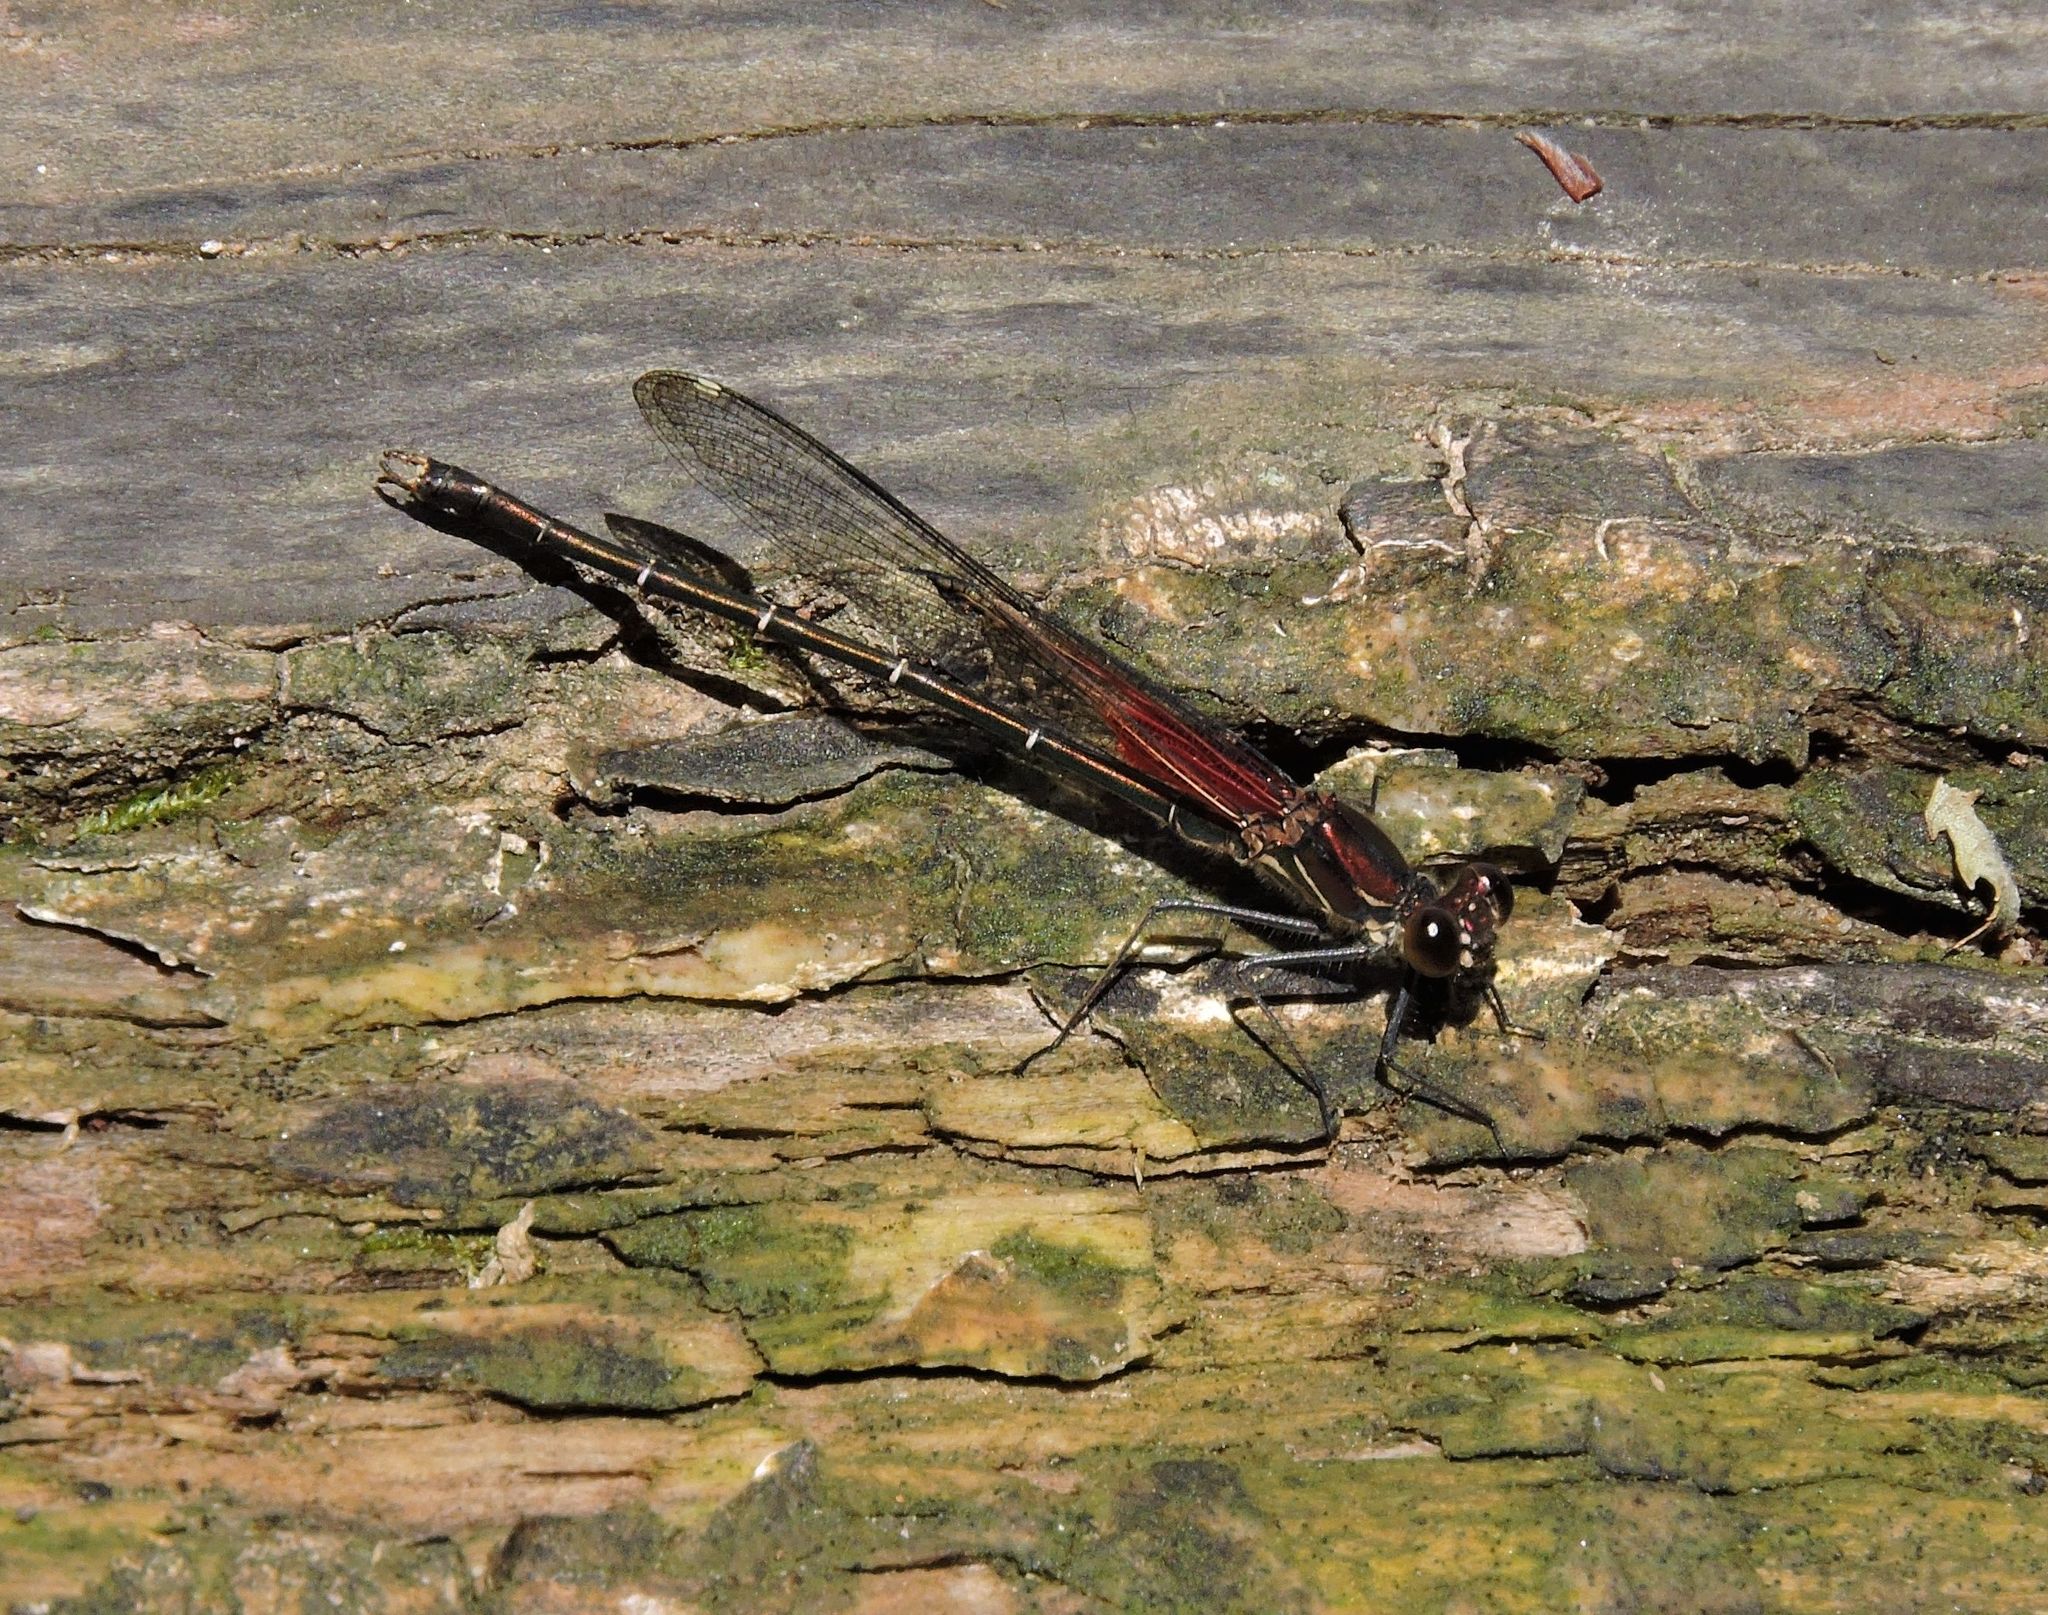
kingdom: Animalia
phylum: Arthropoda
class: Insecta
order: Odonata
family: Calopterygidae
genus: Hetaerina
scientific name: Hetaerina americana
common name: American rubyspot
